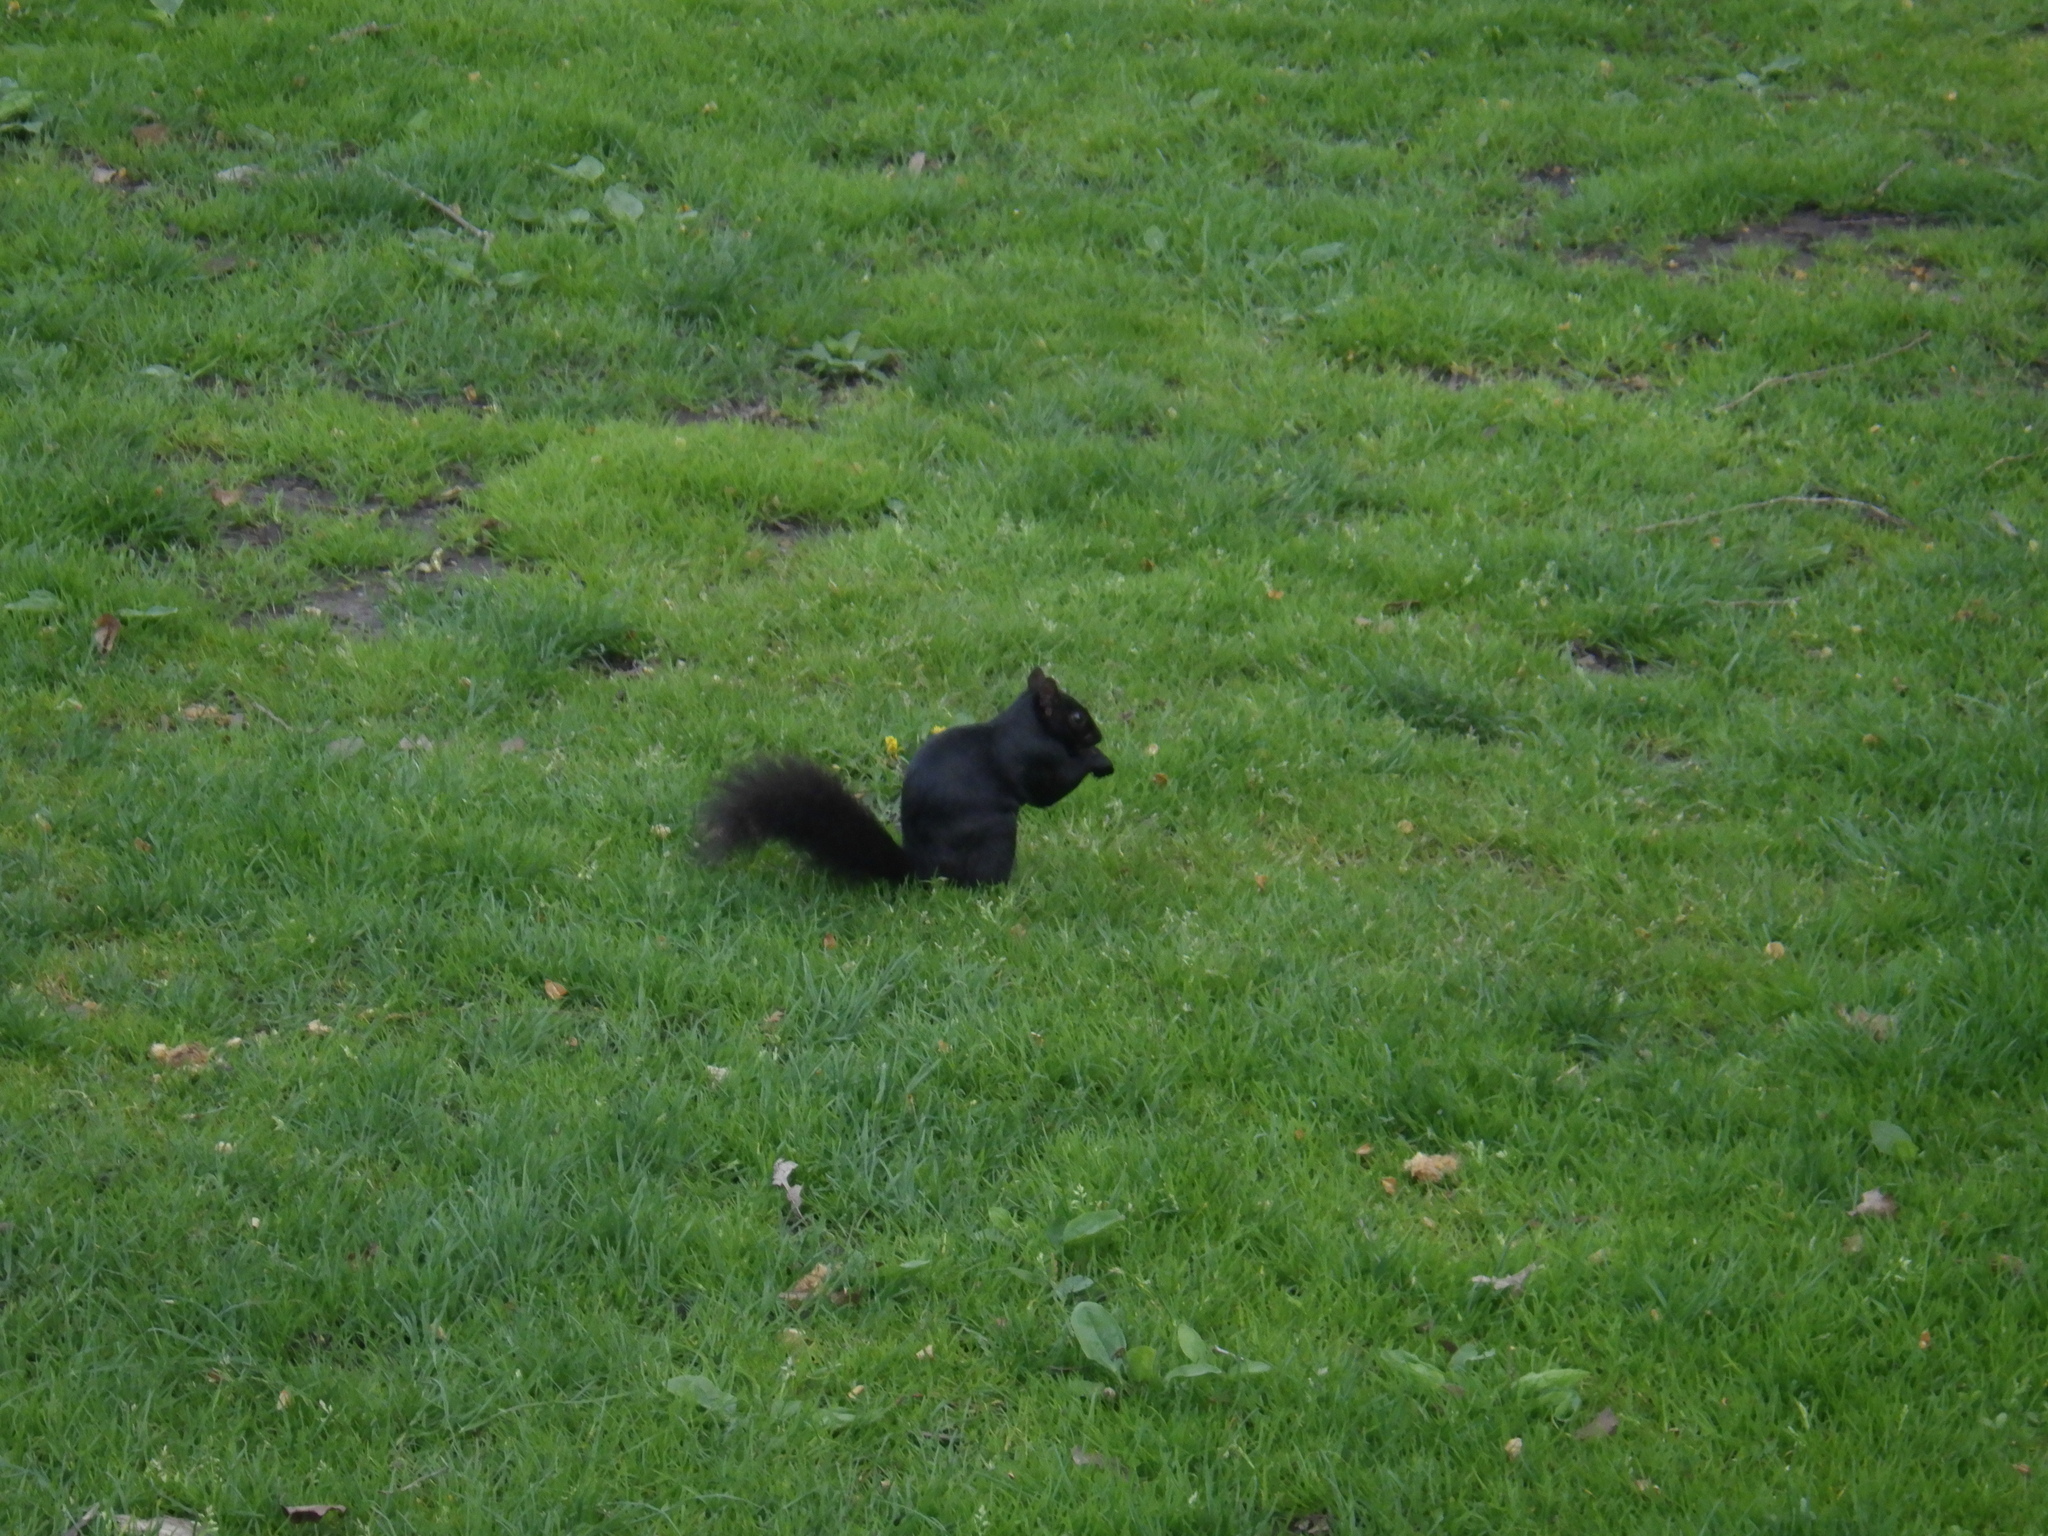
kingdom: Animalia
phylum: Chordata
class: Mammalia
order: Rodentia
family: Sciuridae
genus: Sciurus
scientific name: Sciurus carolinensis
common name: Eastern gray squirrel
